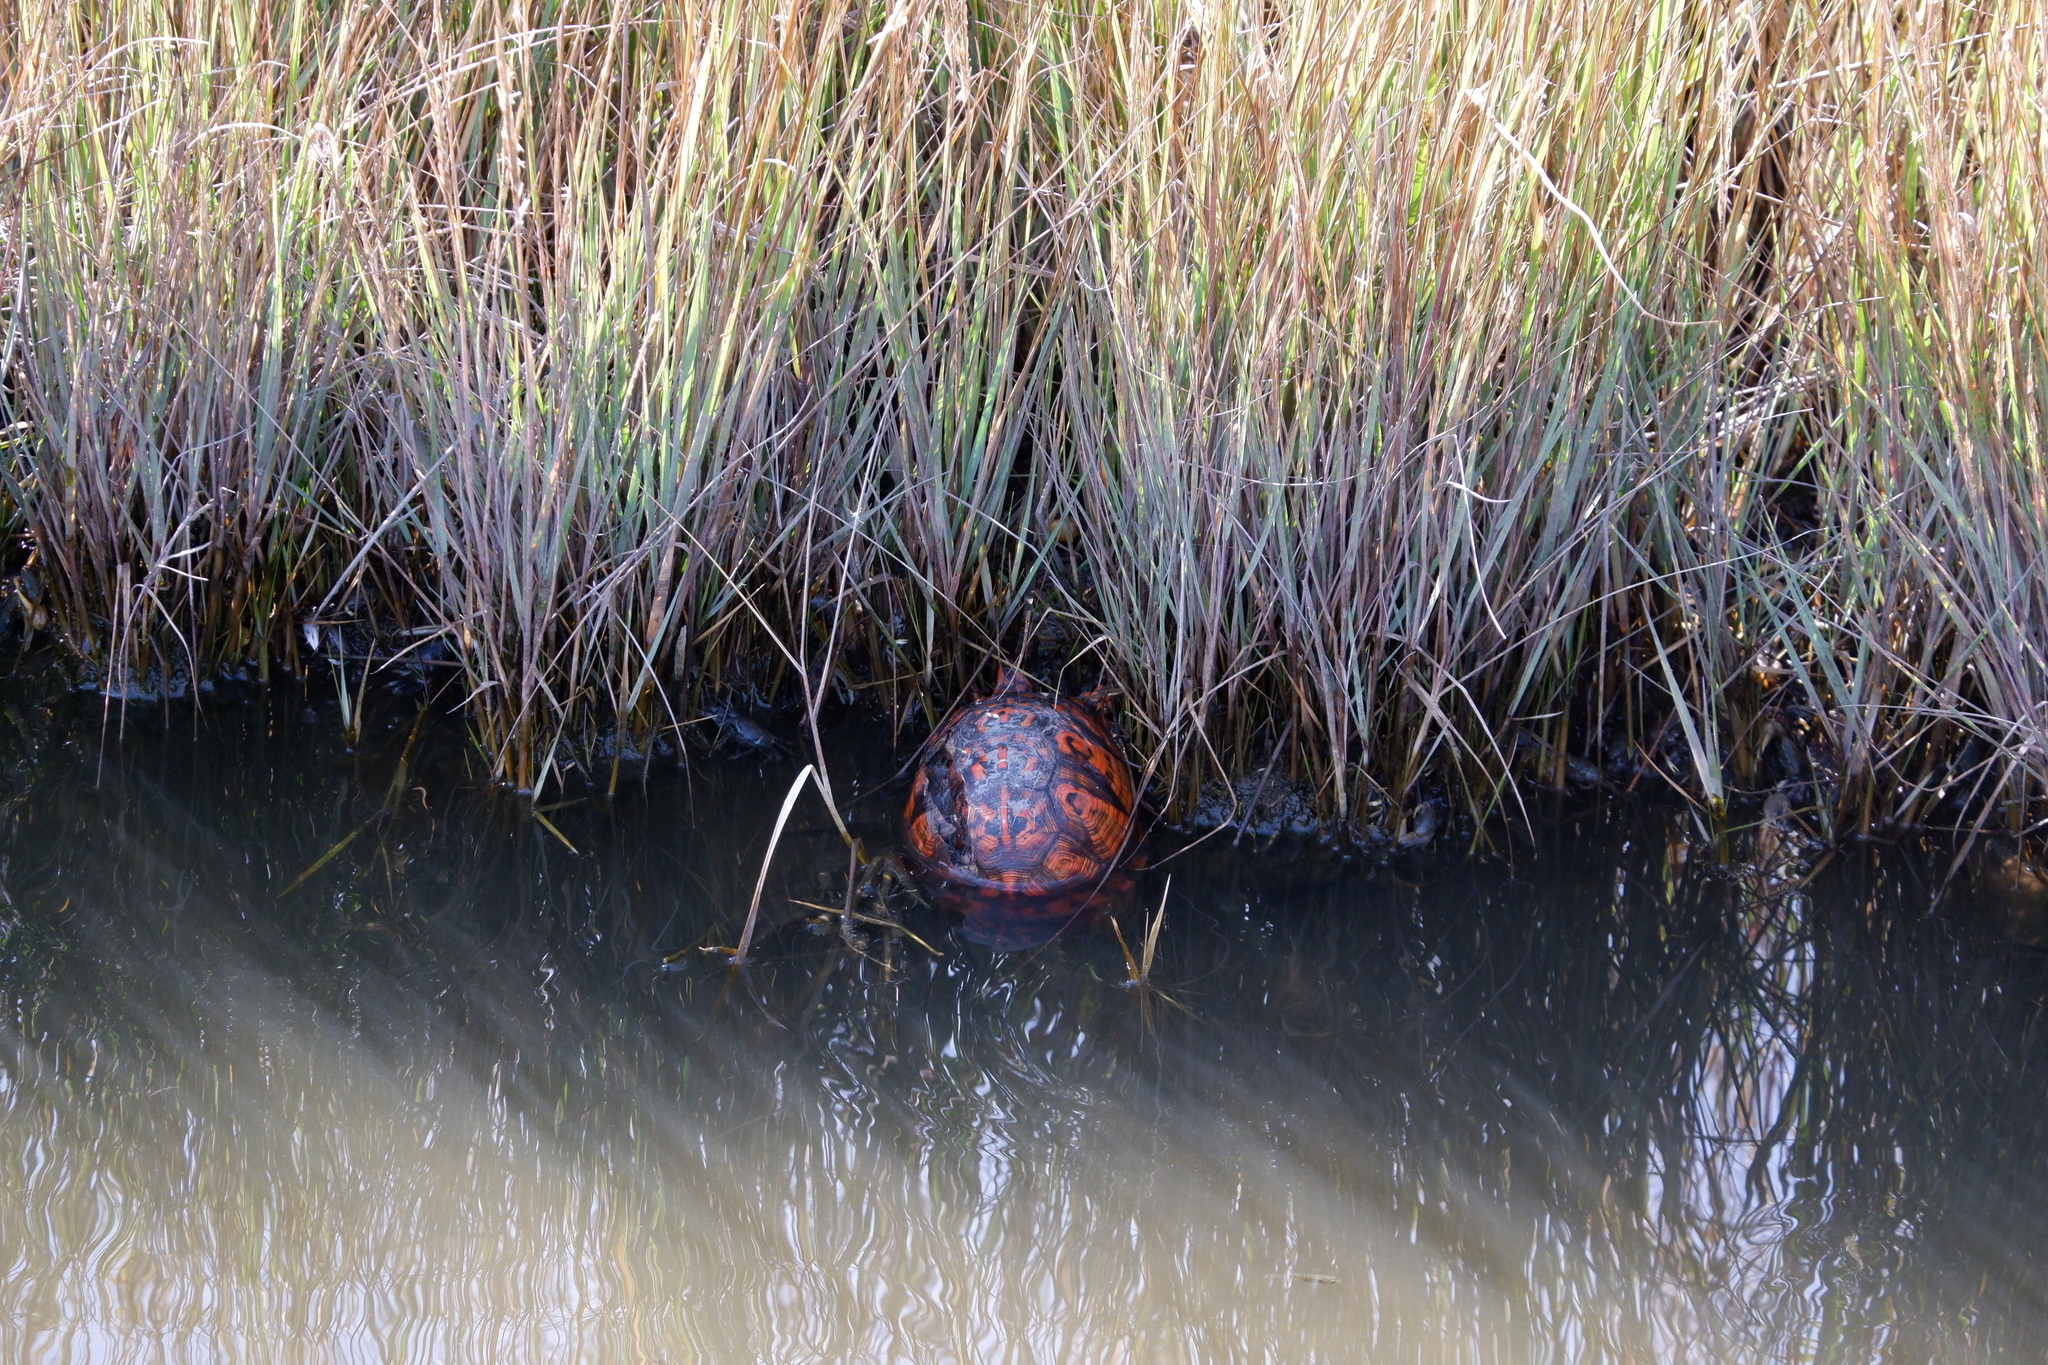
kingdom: Animalia
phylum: Chordata
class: Testudines
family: Emydidae
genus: Terrapene
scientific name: Terrapene carolina
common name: Common box turtle
